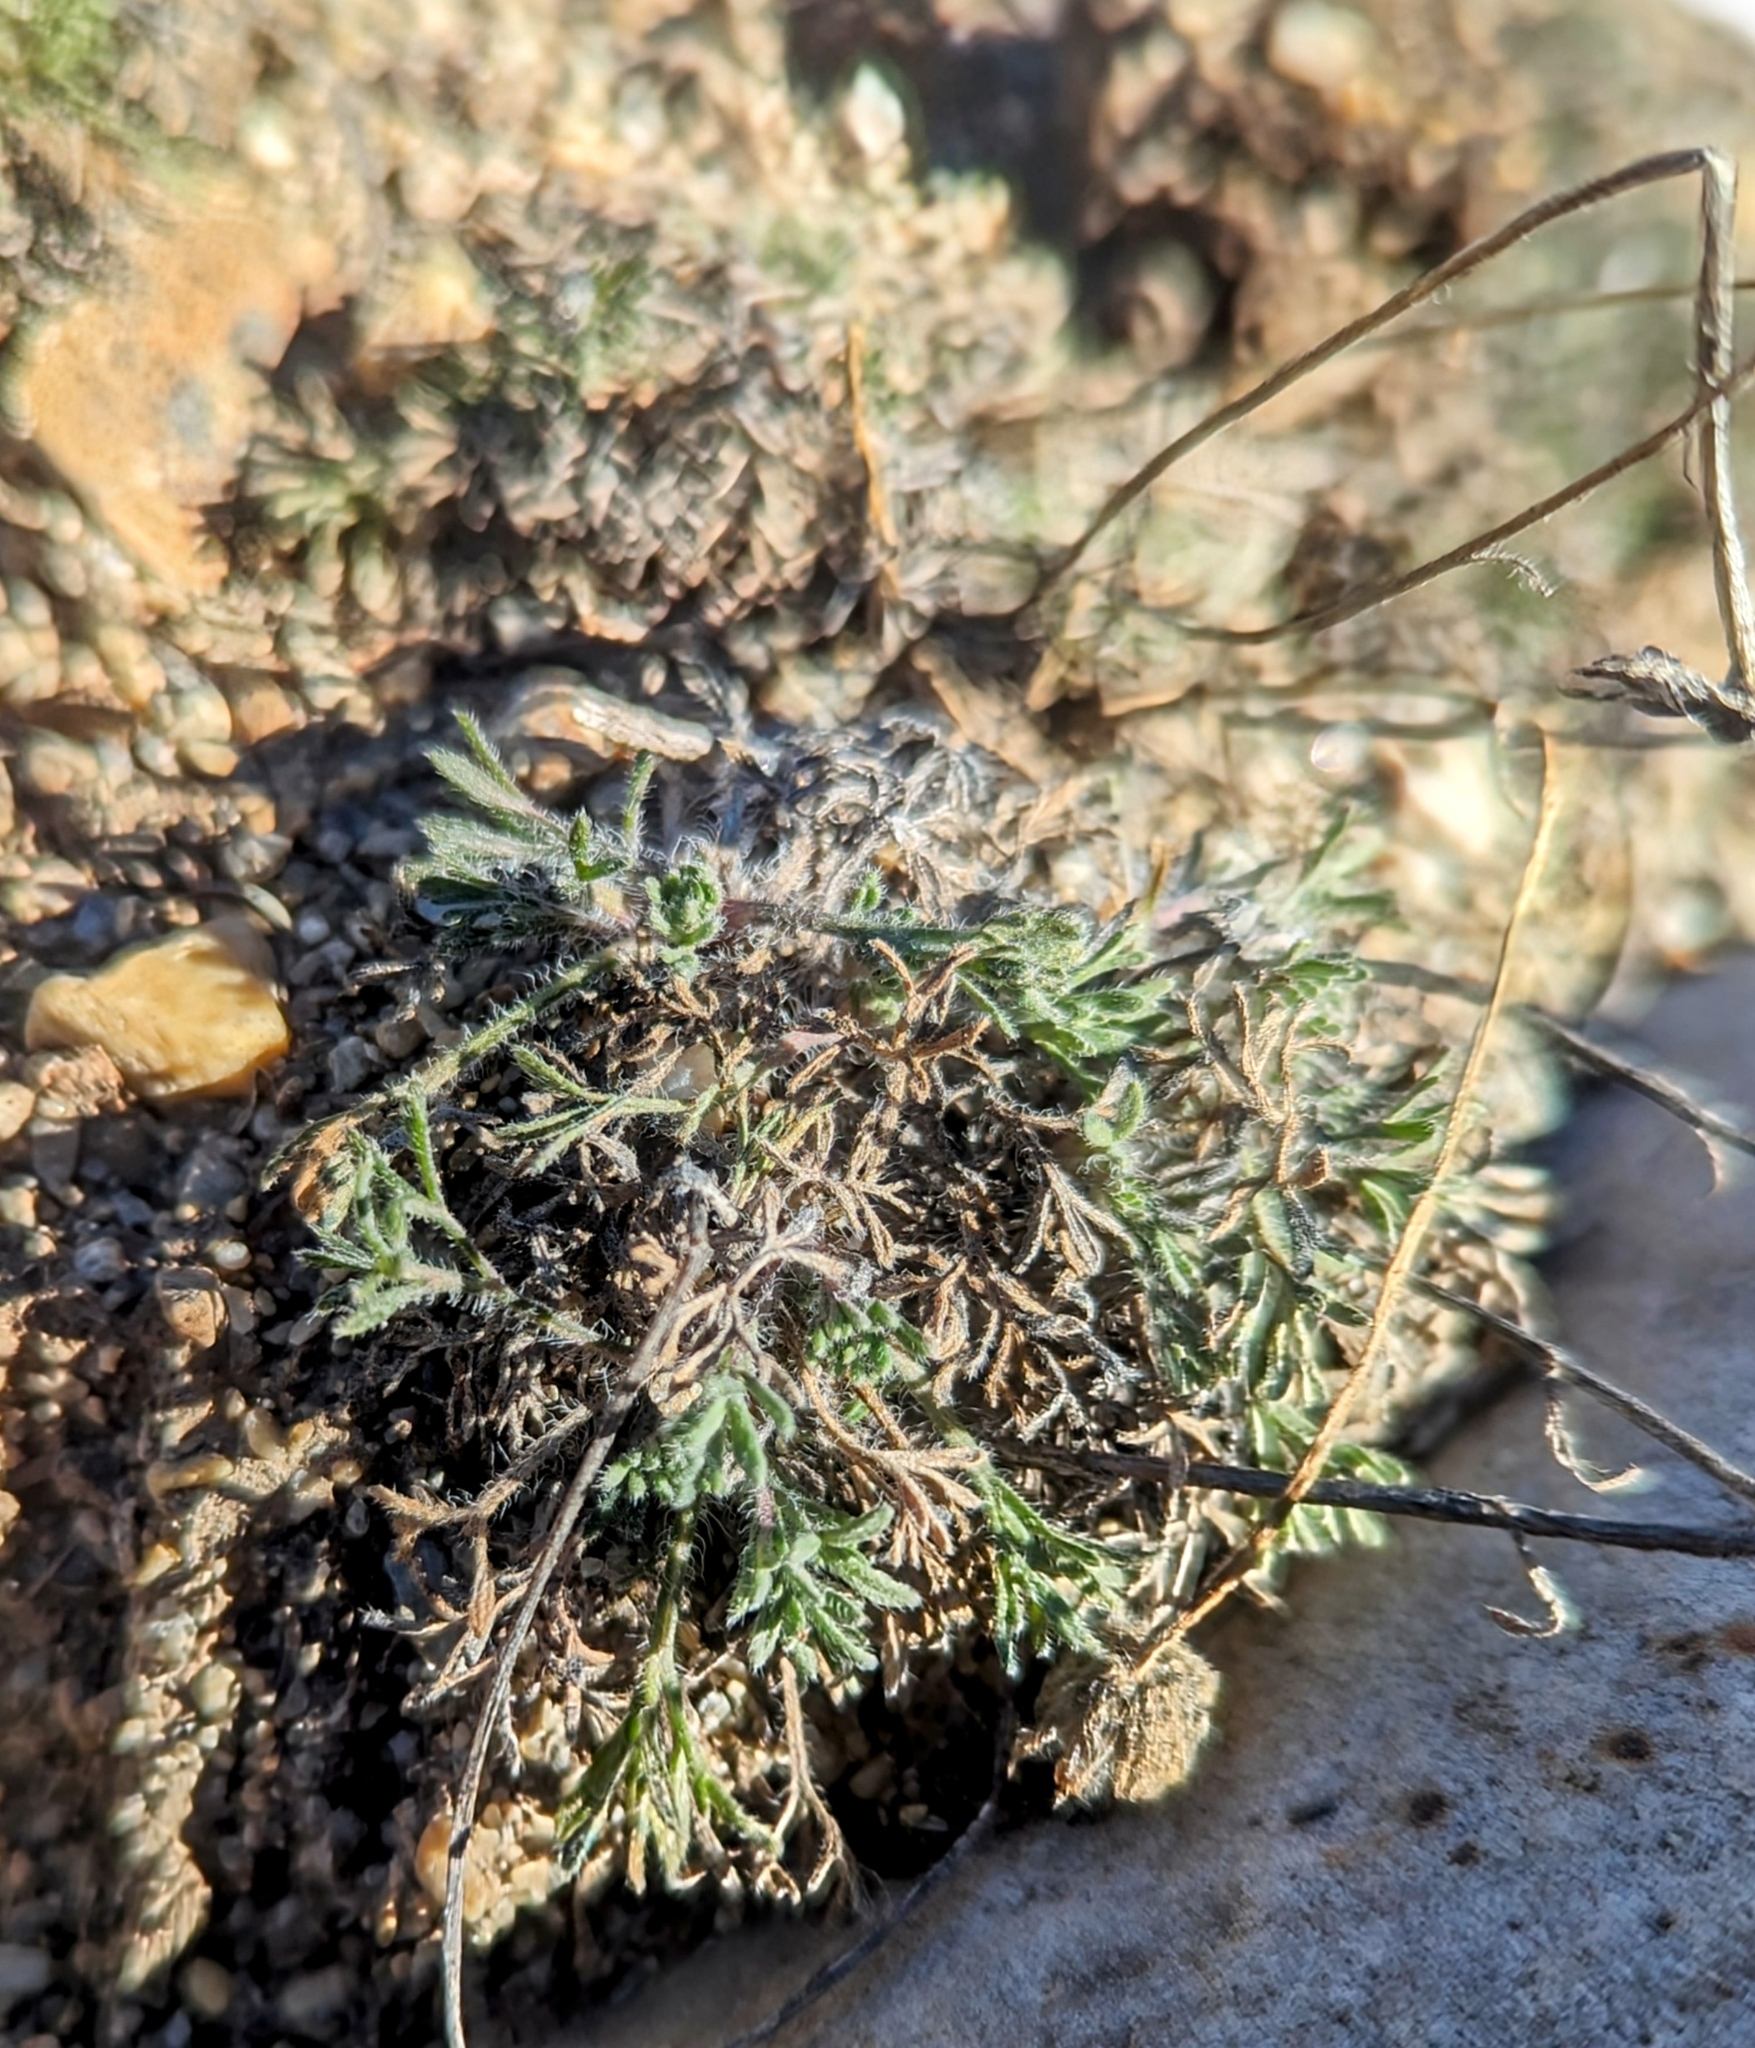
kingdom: Plantae
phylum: Tracheophyta
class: Magnoliopsida
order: Asterales
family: Asteraceae
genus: Erigeron
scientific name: Erigeron compositus
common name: Dwarf mountain fleabane
